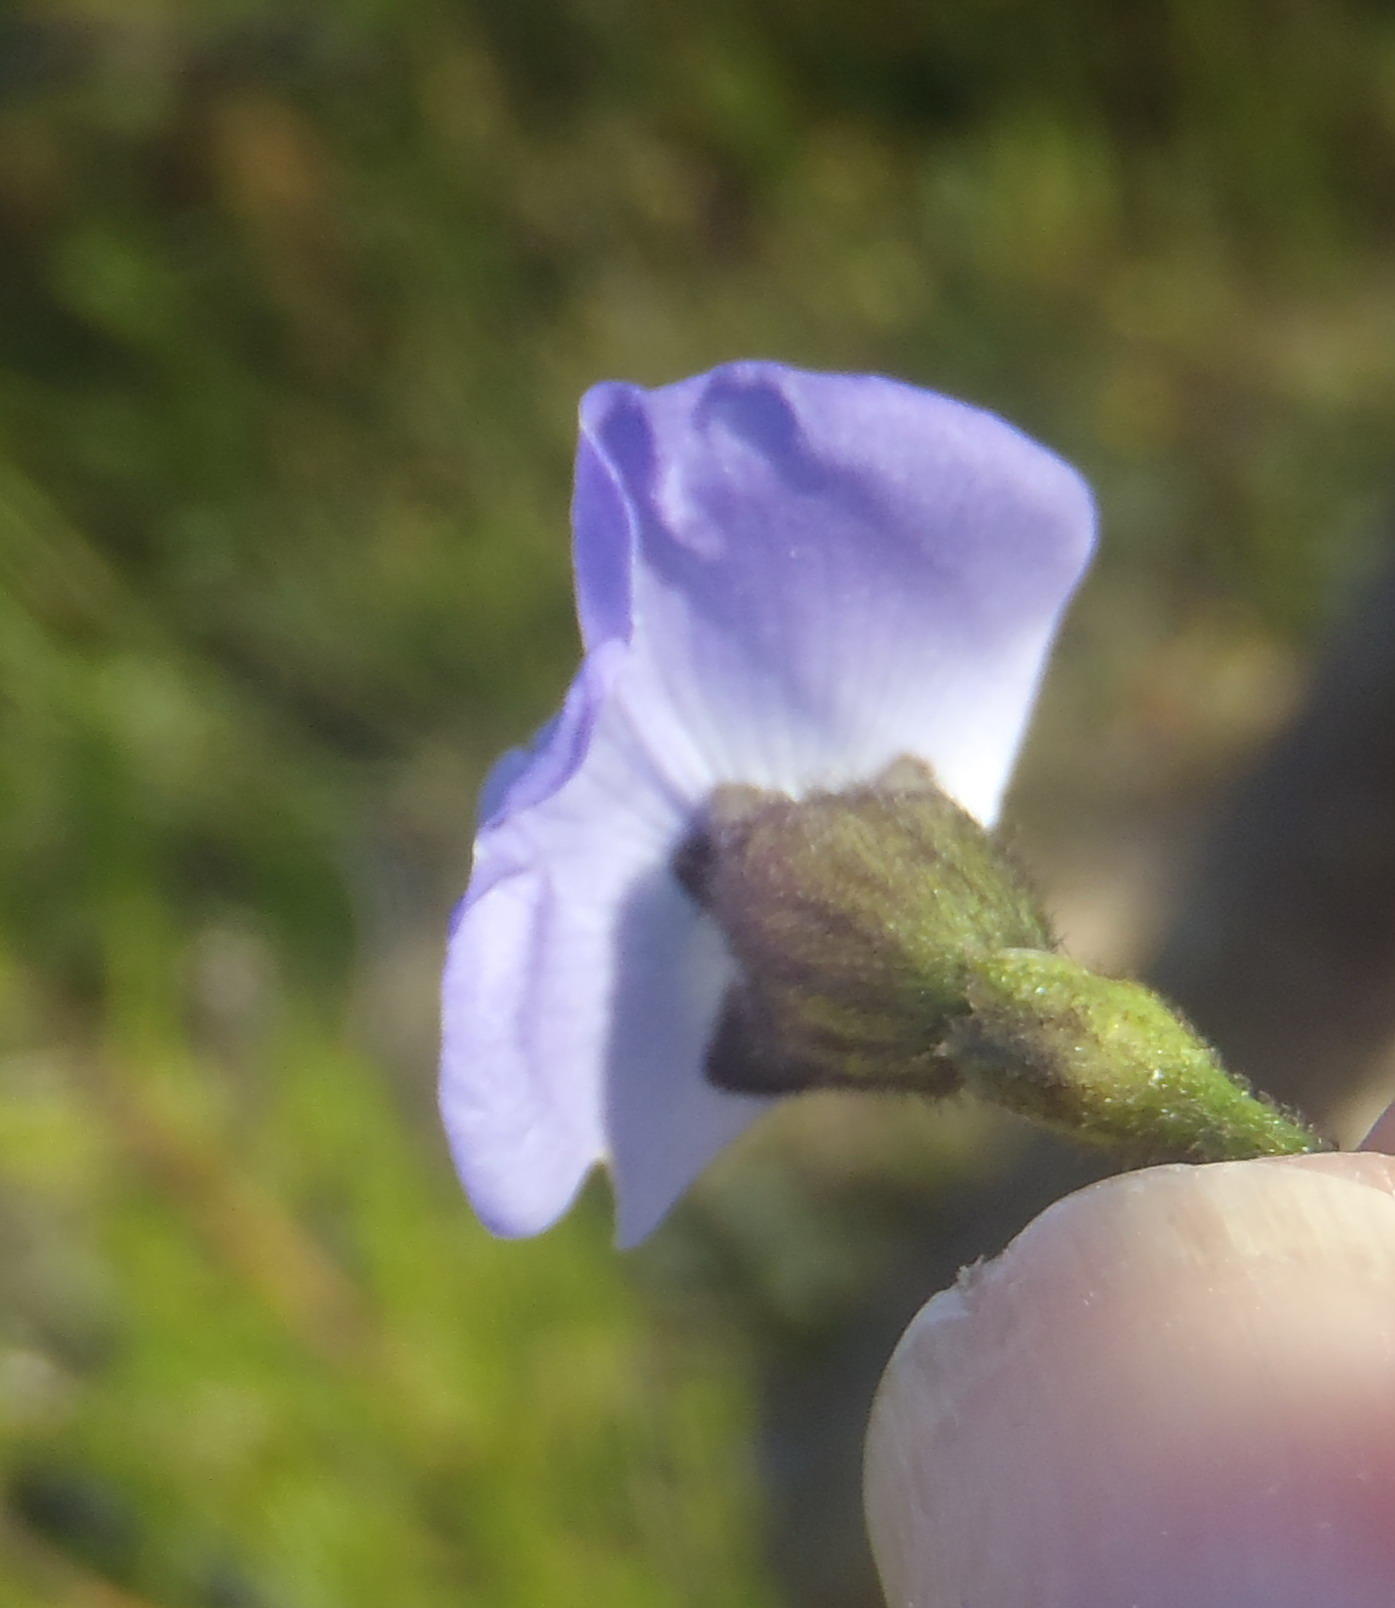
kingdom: Plantae
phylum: Tracheophyta
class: Magnoliopsida
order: Fabales
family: Fabaceae
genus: Psoralea
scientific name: Psoralea affinis
